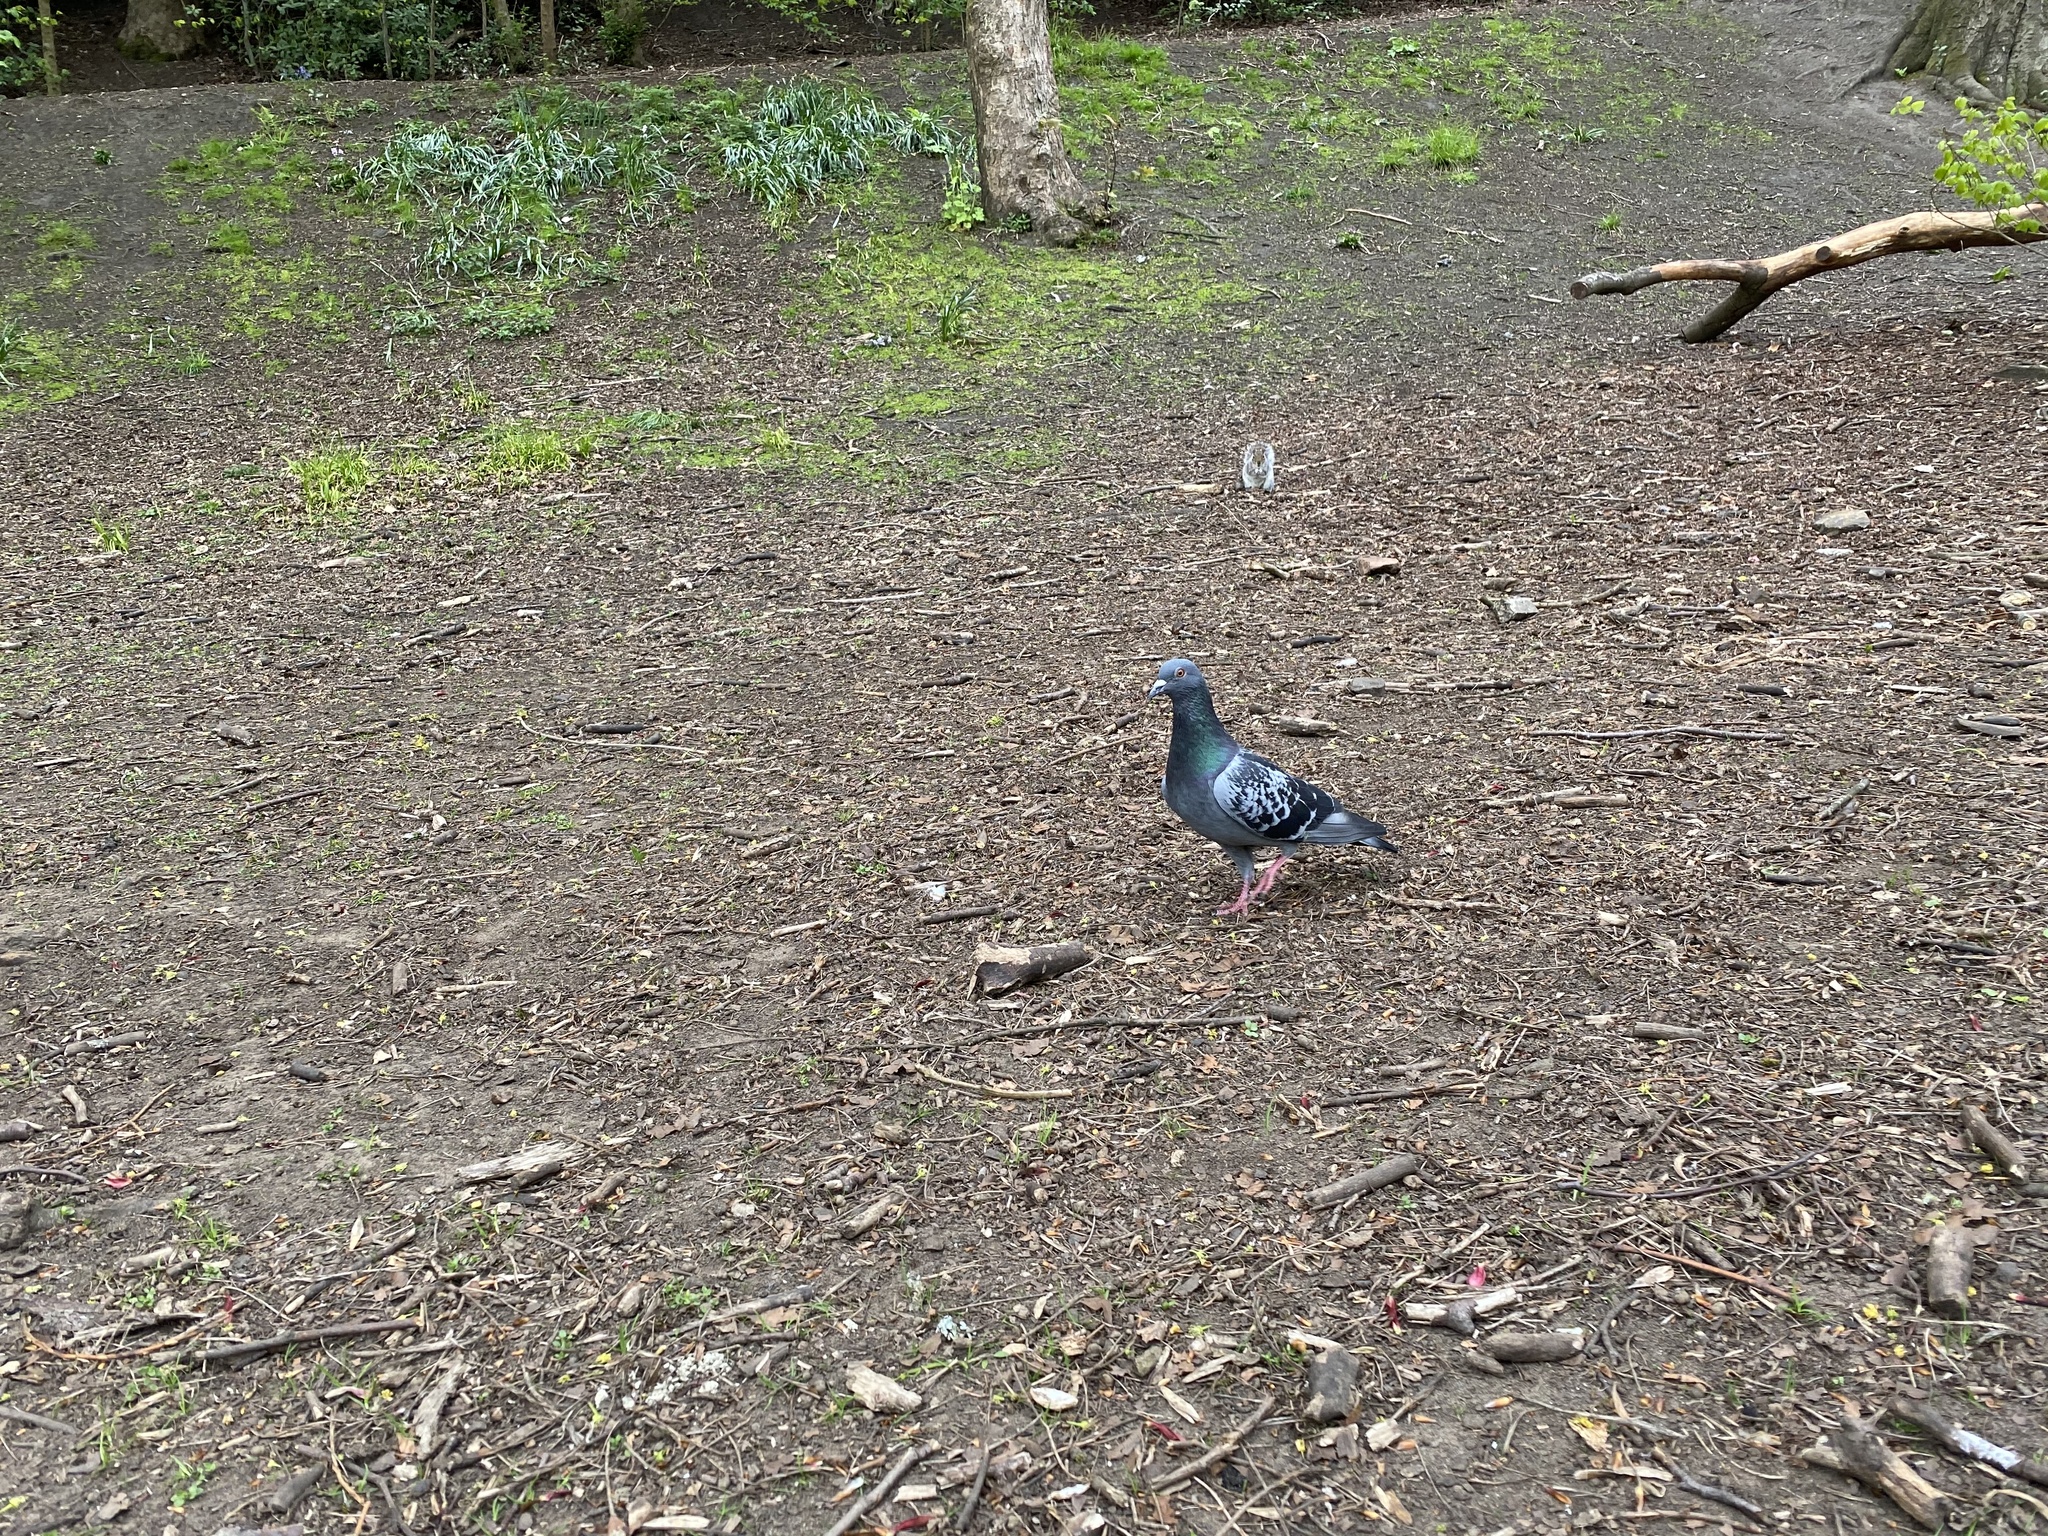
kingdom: Animalia
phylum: Chordata
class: Aves
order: Columbiformes
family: Columbidae
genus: Columba
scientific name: Columba livia
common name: Rock pigeon
